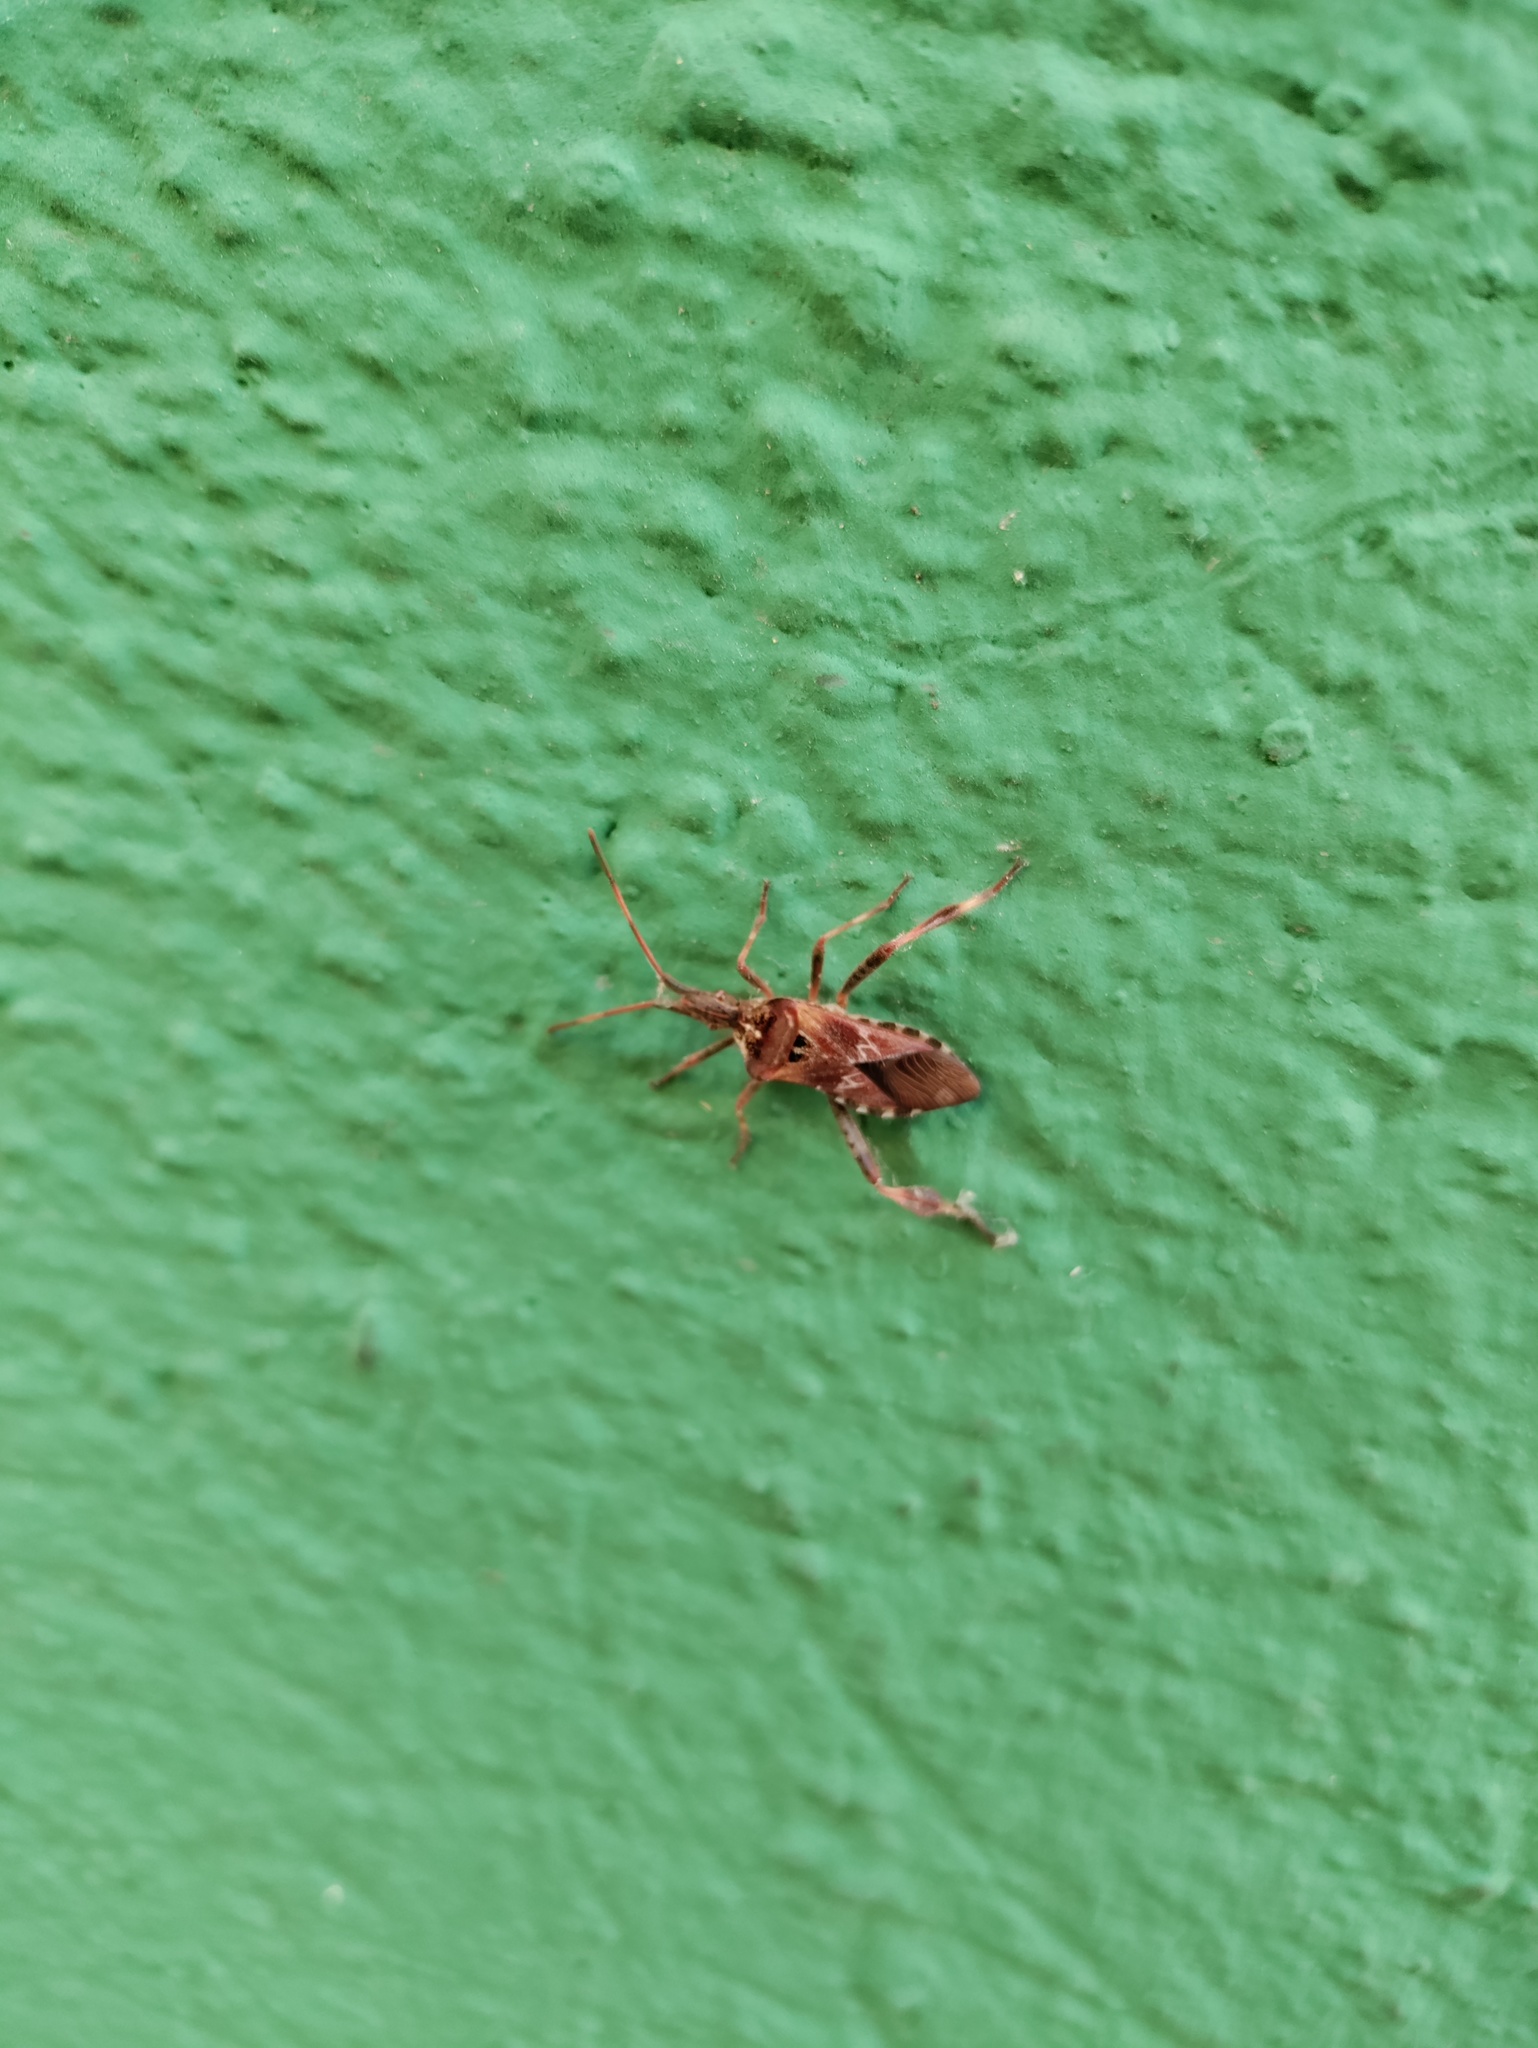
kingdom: Animalia
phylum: Arthropoda
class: Insecta
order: Hemiptera
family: Coreidae
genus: Leptoglossus
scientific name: Leptoglossus occidentalis
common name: Western conifer-seed bug
